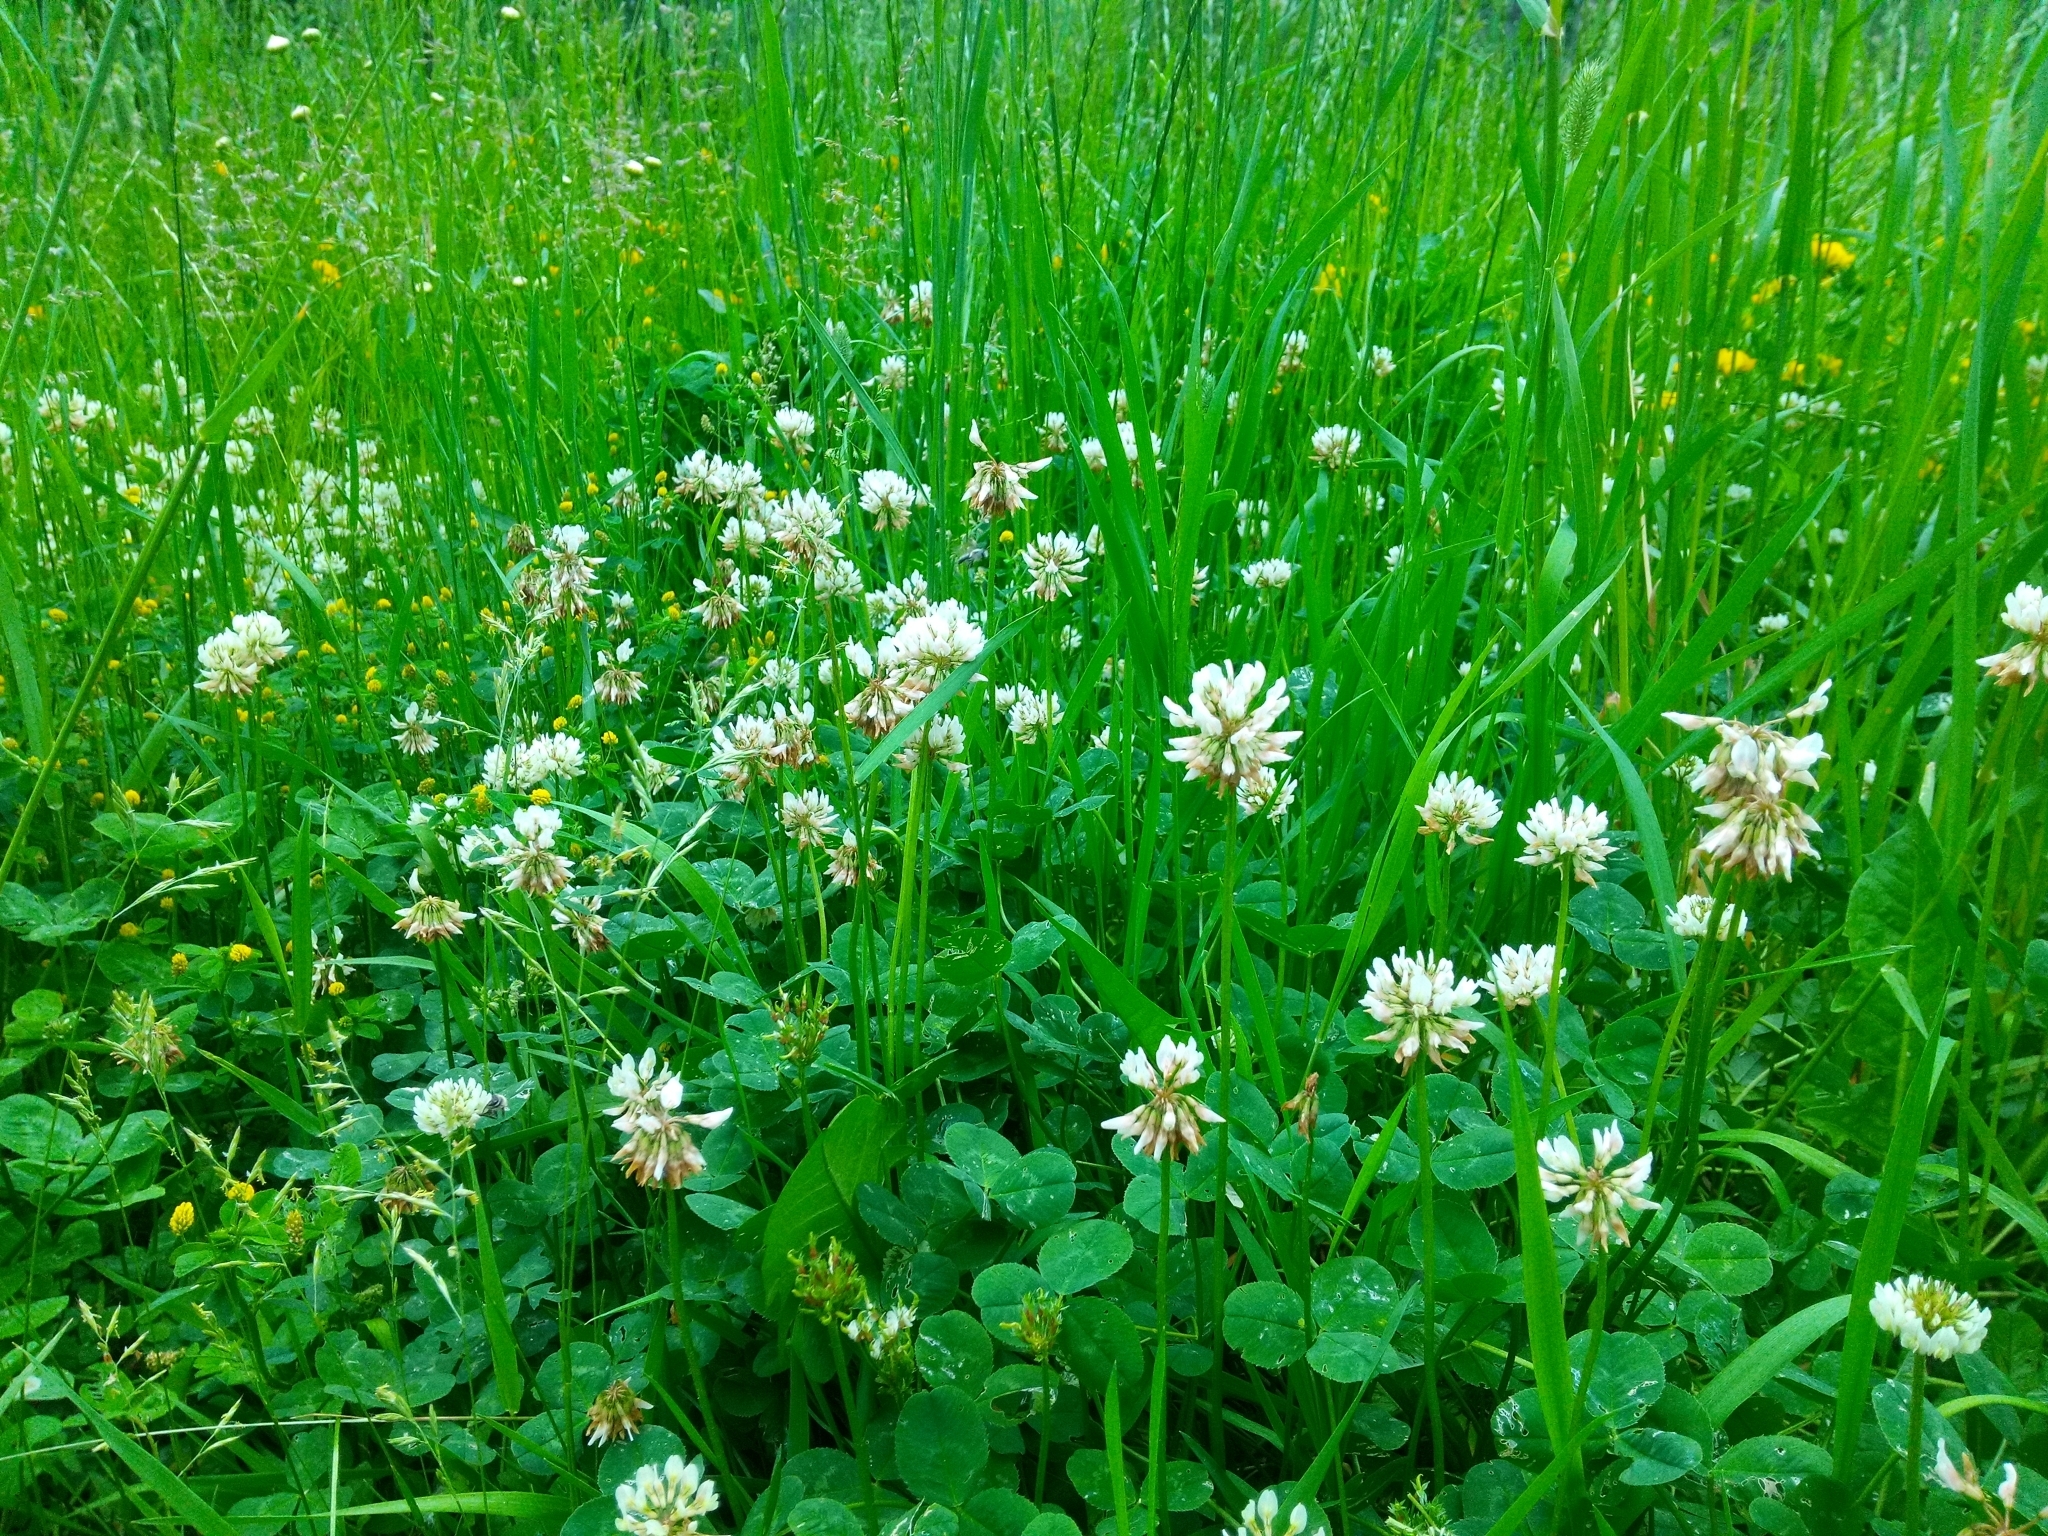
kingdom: Plantae
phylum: Tracheophyta
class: Magnoliopsida
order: Fabales
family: Fabaceae
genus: Trifolium
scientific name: Trifolium repens
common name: White clover
